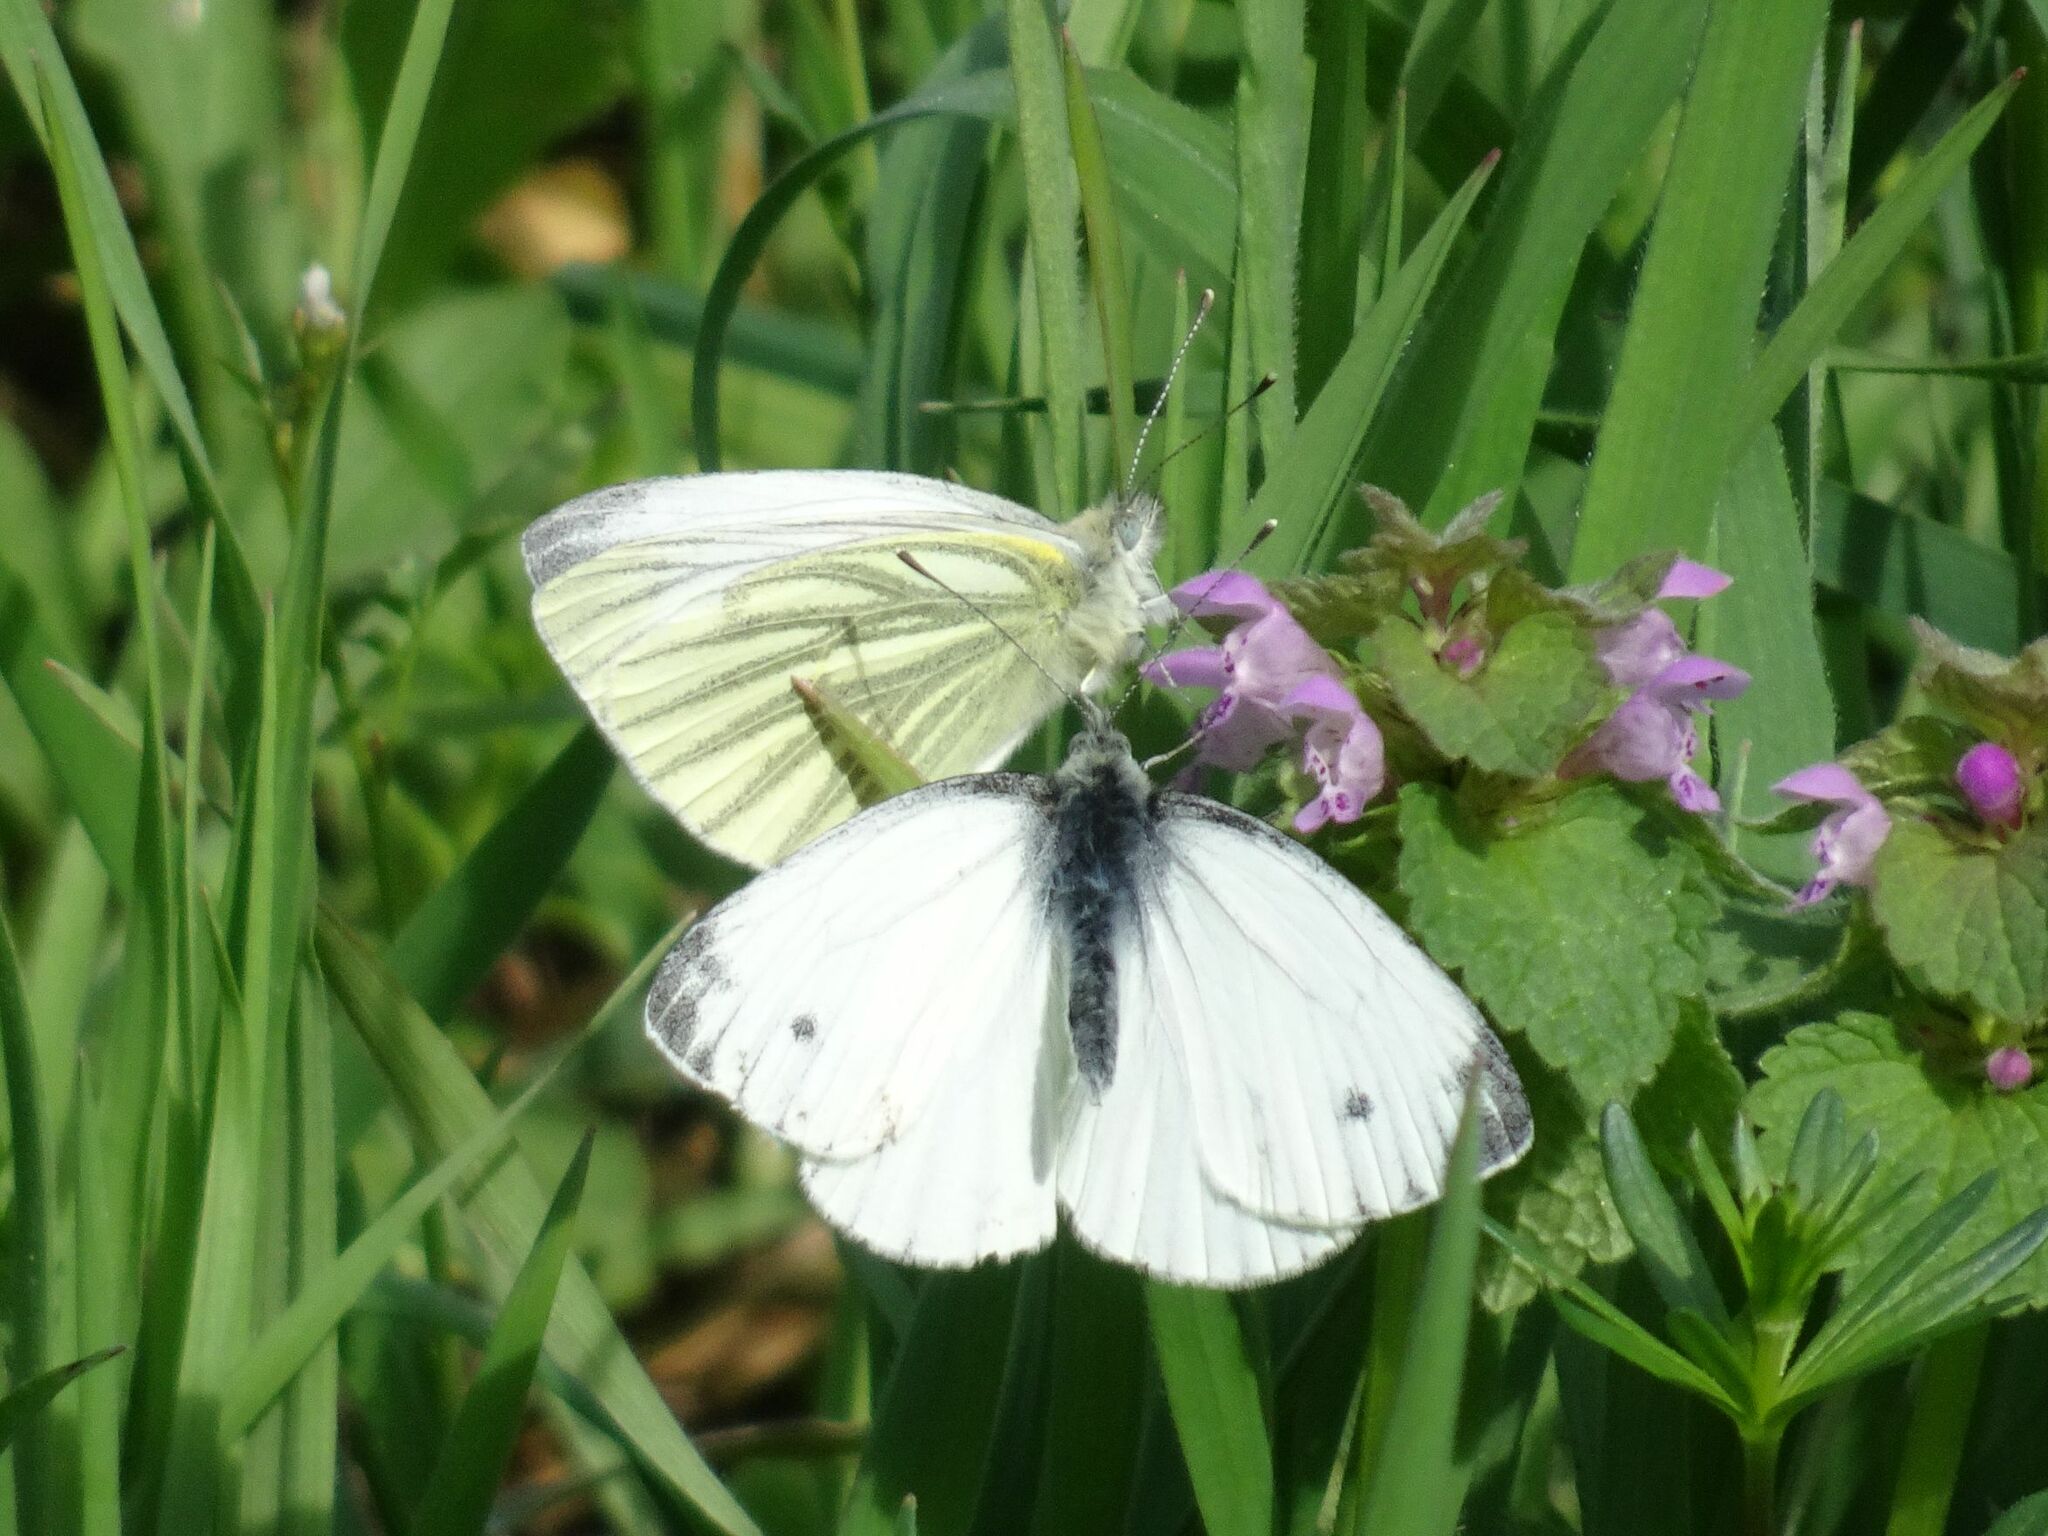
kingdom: Animalia
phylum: Arthropoda
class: Insecta
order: Lepidoptera
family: Pieridae
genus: Pieris
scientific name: Pieris napi
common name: Green-veined white
